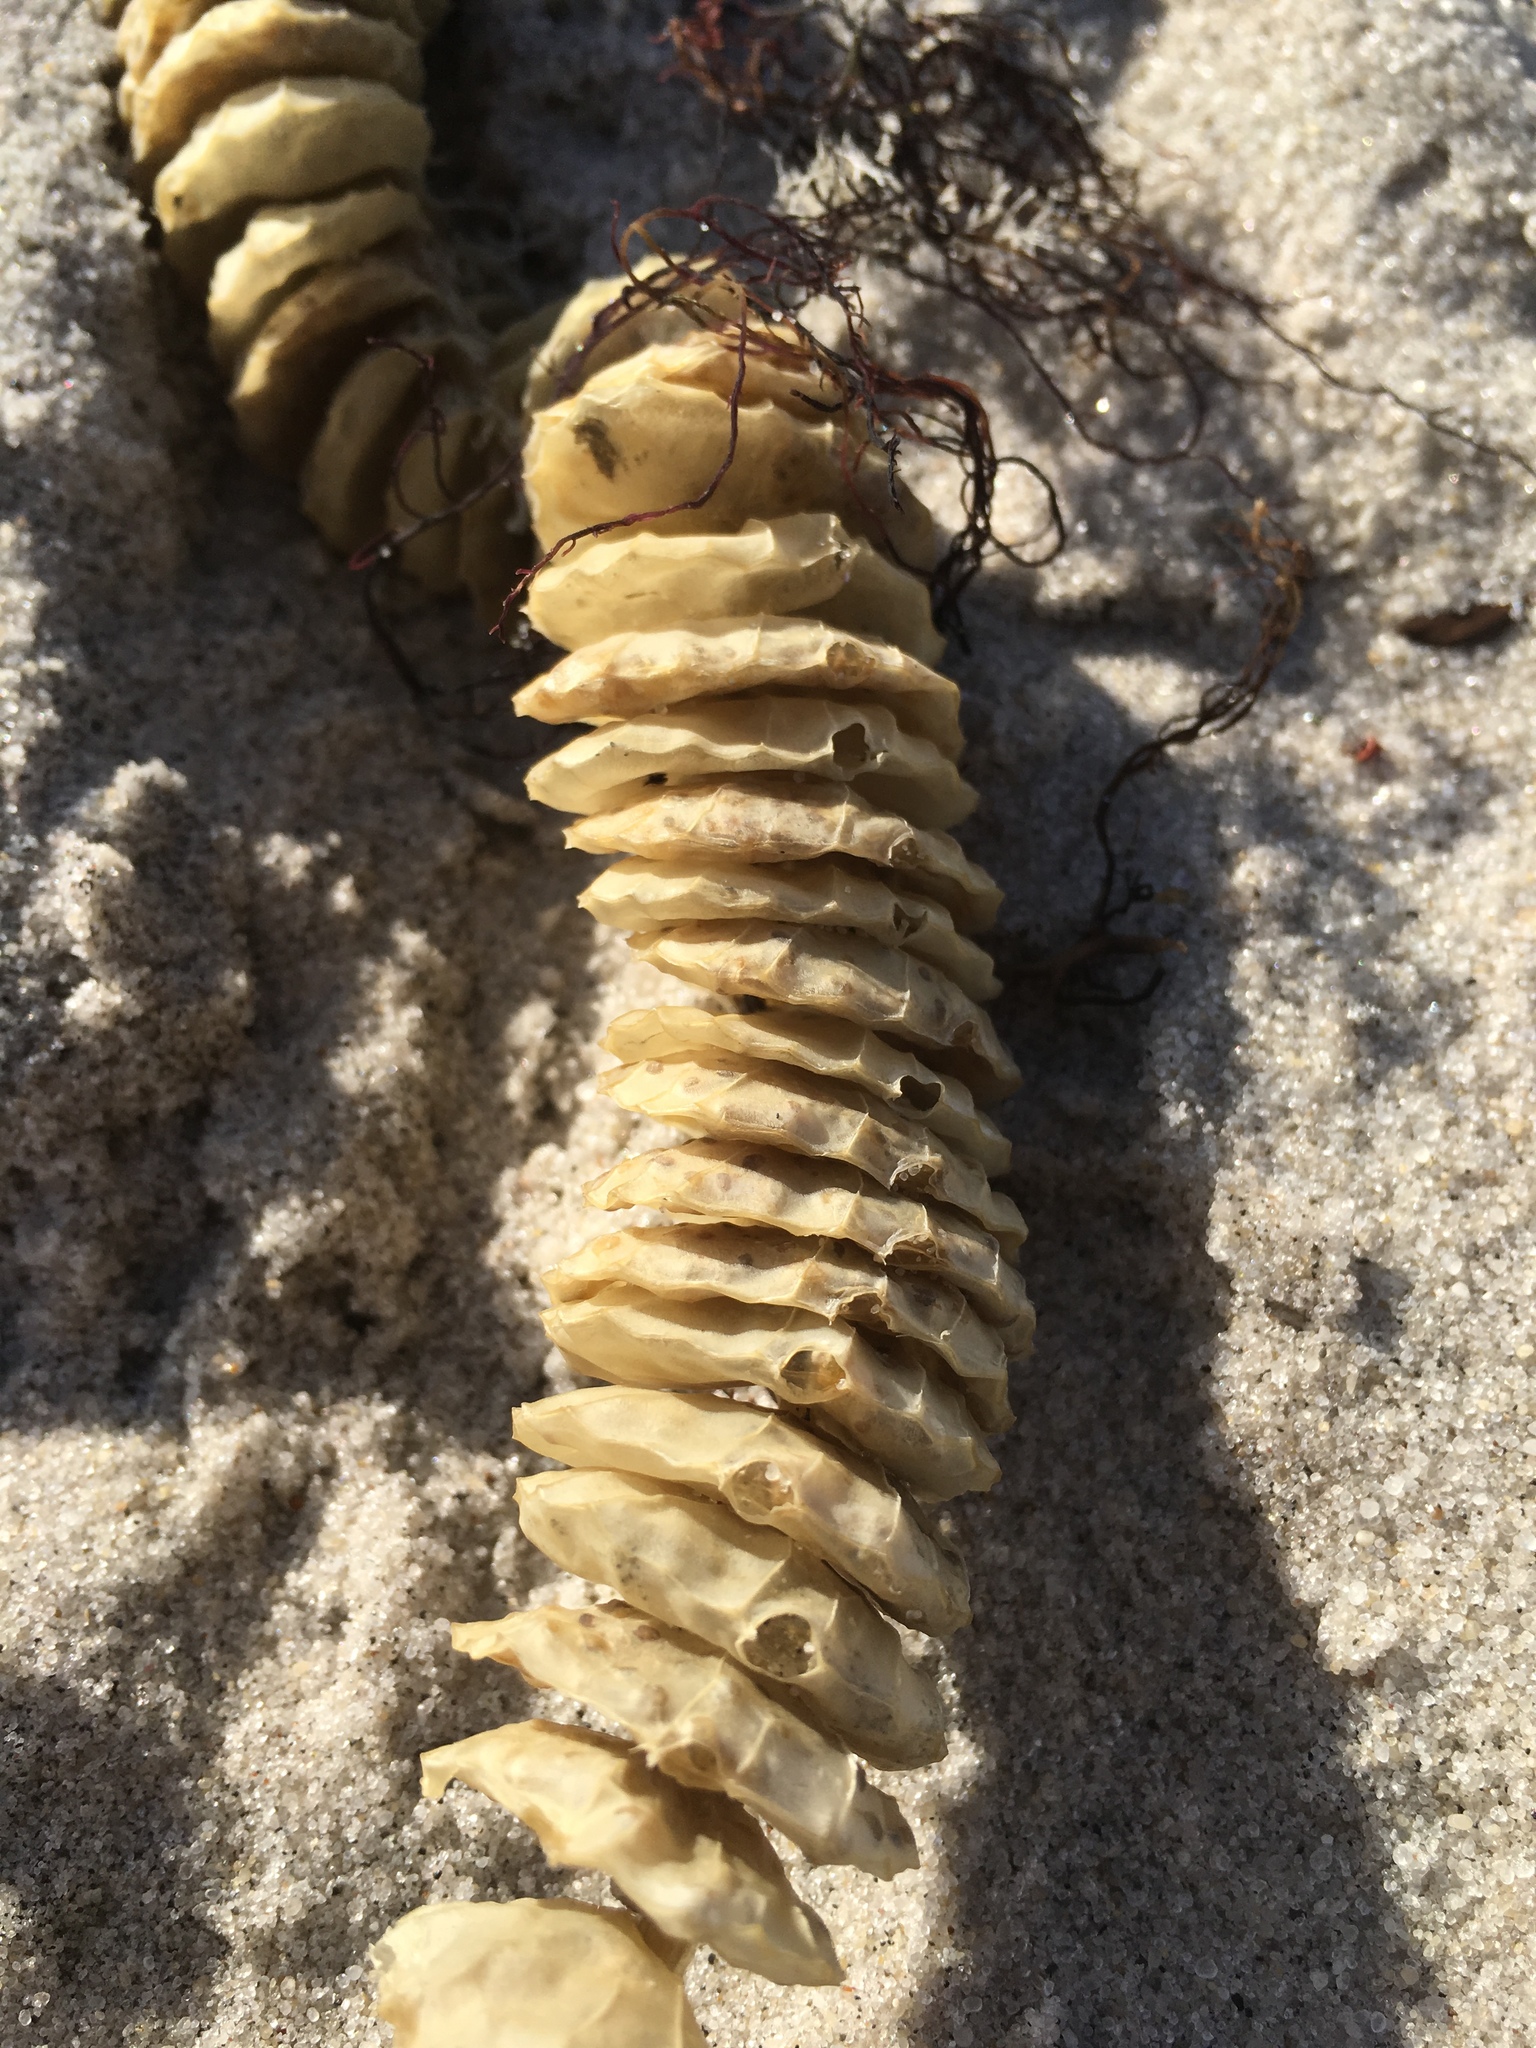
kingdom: Animalia
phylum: Mollusca
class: Gastropoda
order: Neogastropoda
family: Busyconidae
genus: Busycotypus
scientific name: Busycotypus canaliculatus
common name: Channeled whelk
